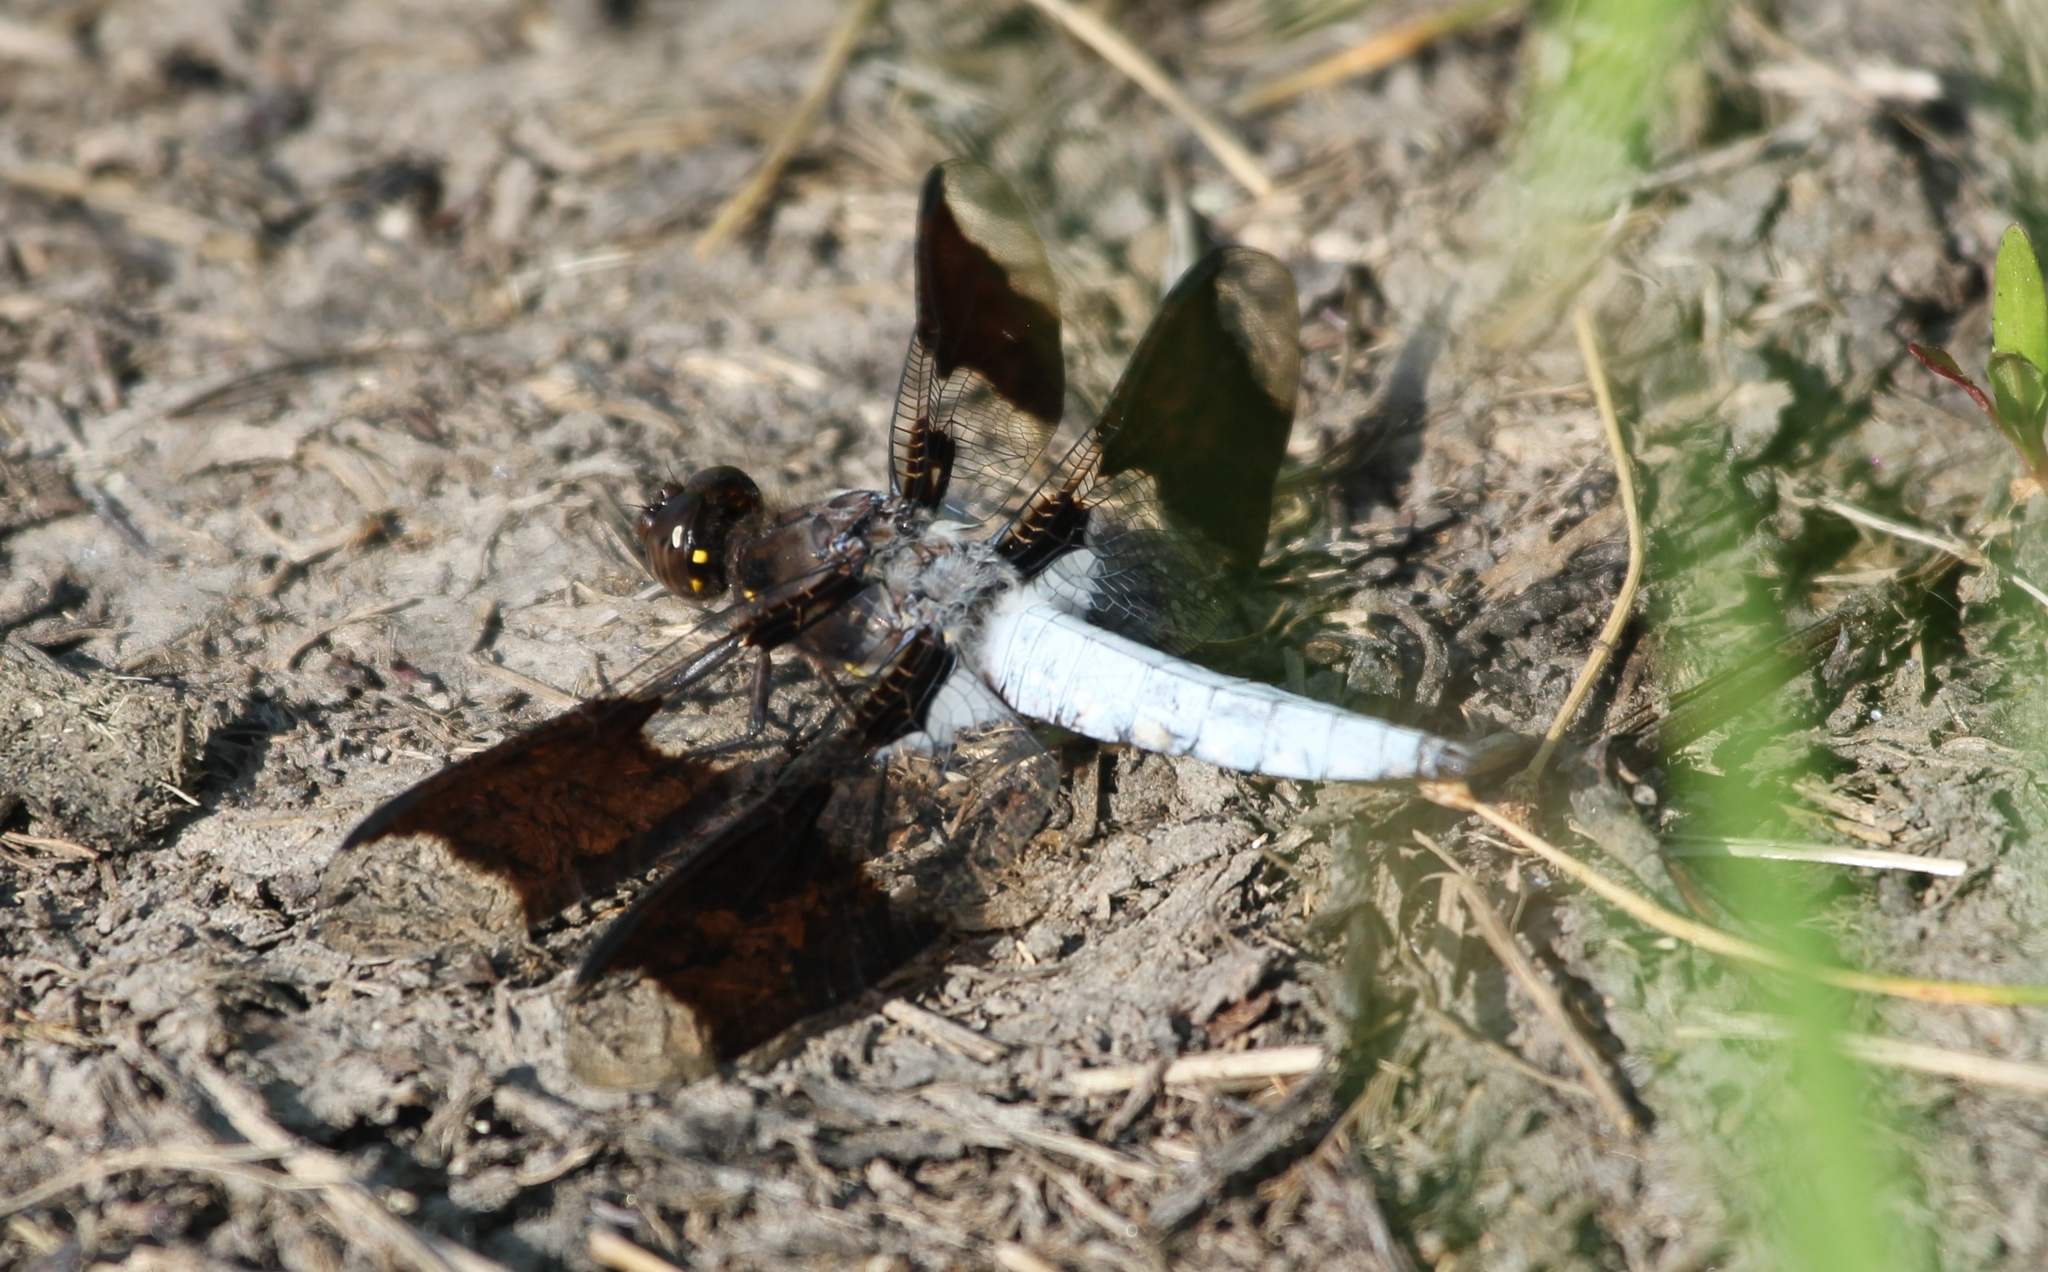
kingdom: Animalia
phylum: Arthropoda
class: Insecta
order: Odonata
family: Libellulidae
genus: Plathemis
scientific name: Plathemis lydia
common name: Common whitetail
